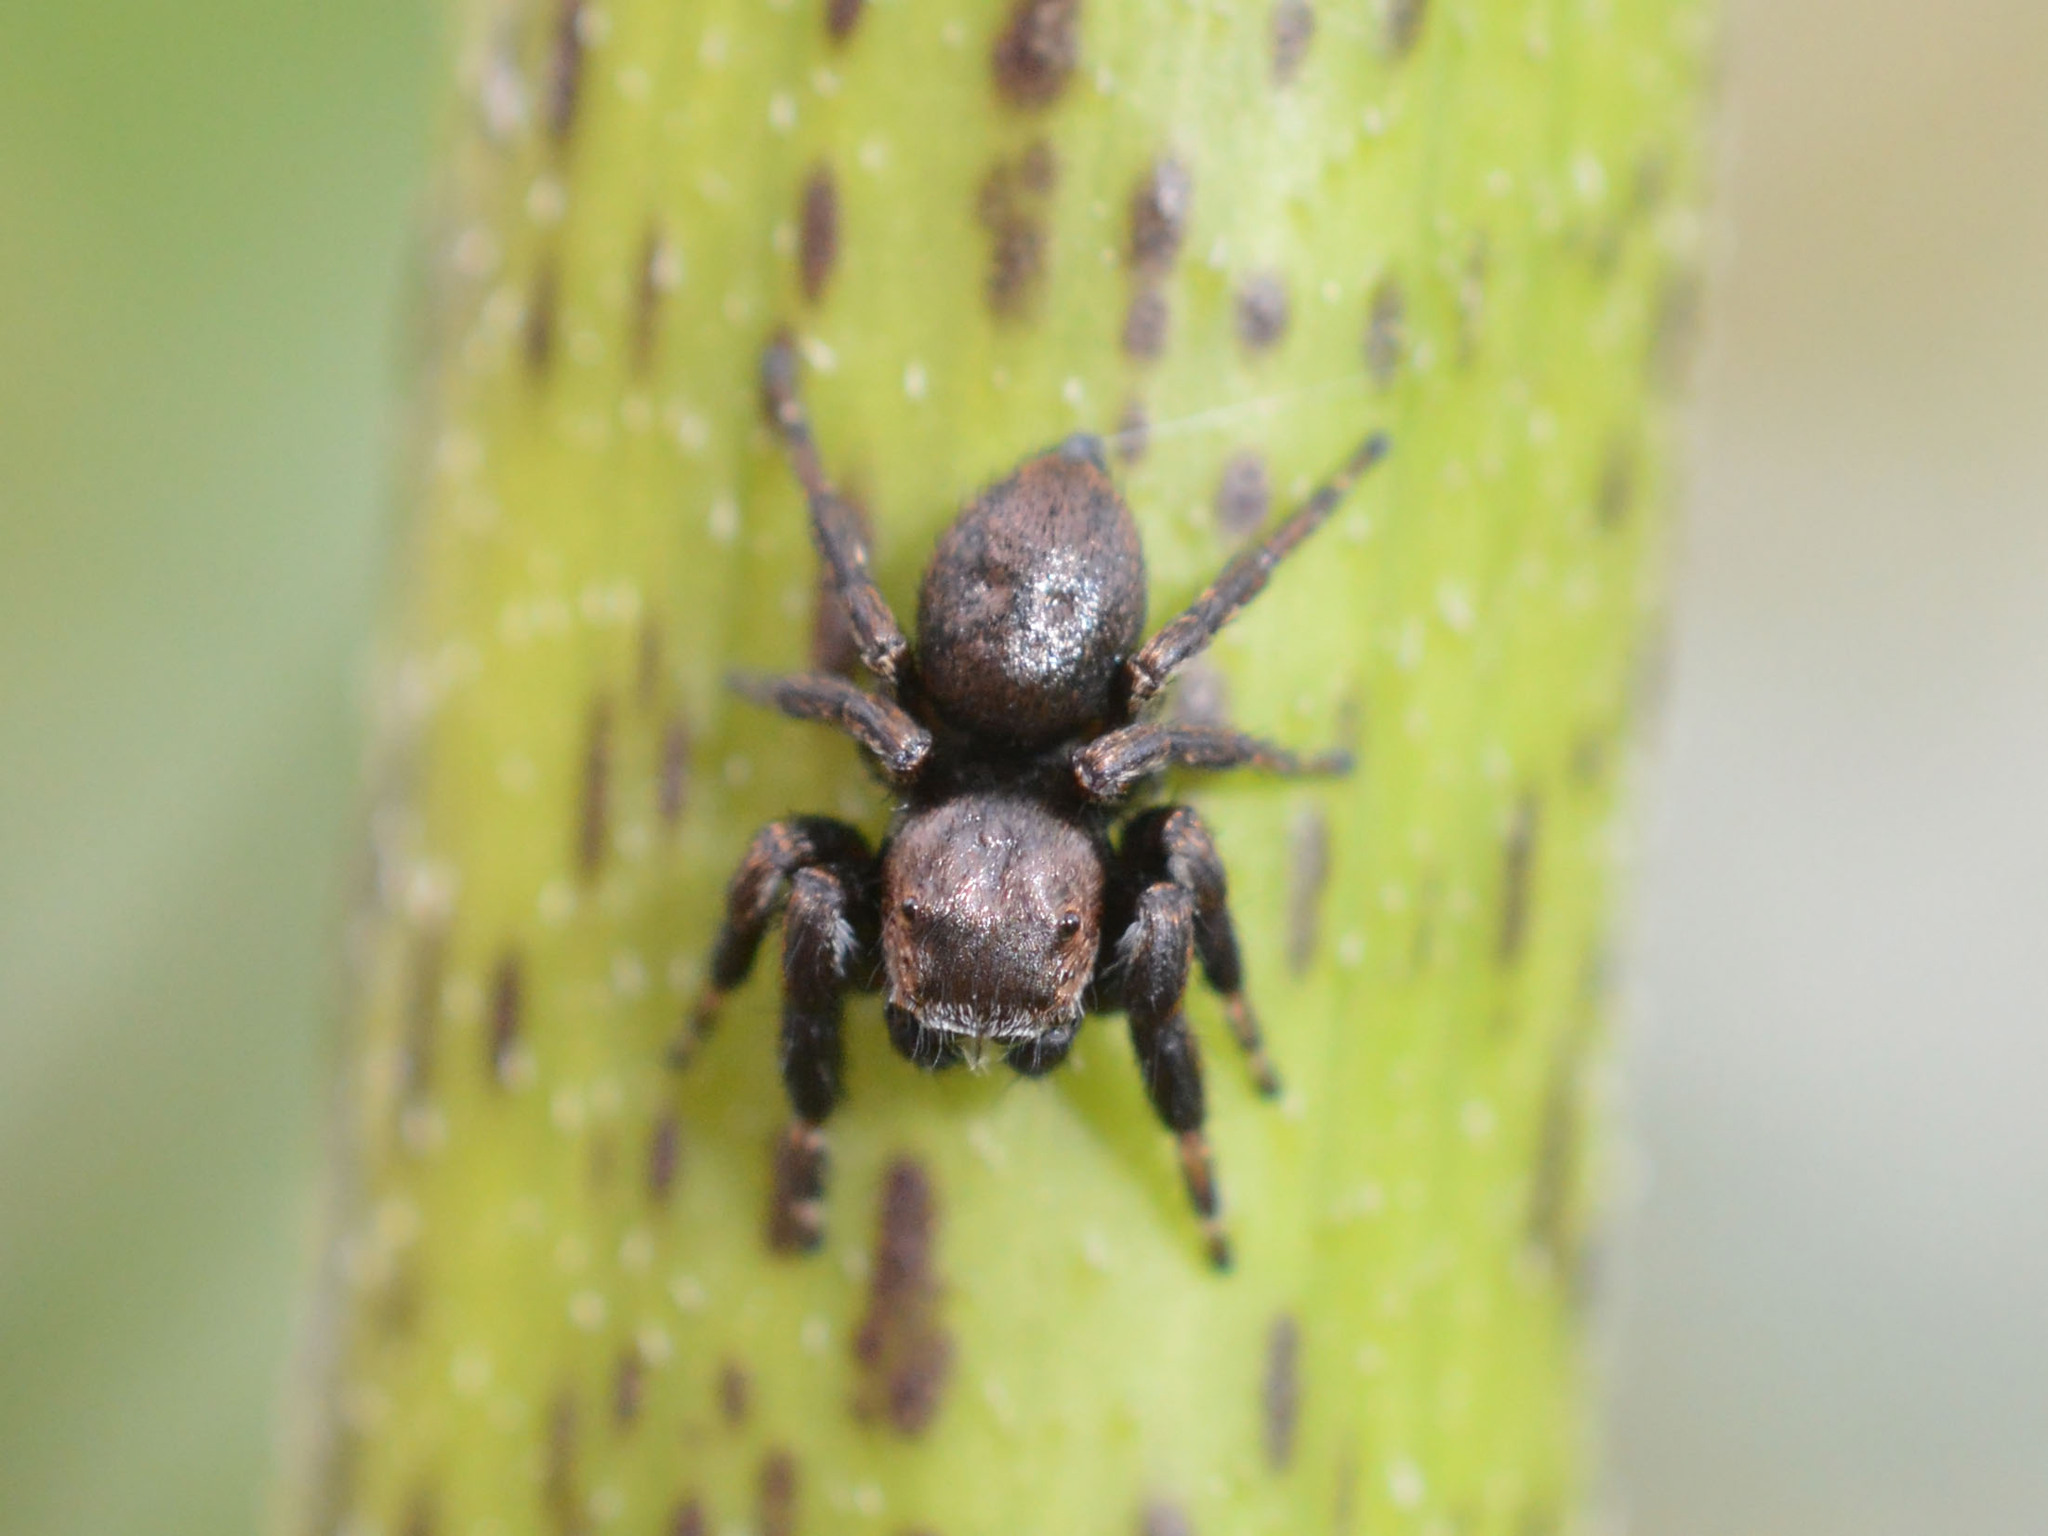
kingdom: Animalia
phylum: Arthropoda
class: Arachnida
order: Araneae
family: Salticidae
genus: Evarcha
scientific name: Evarcha arcuata
